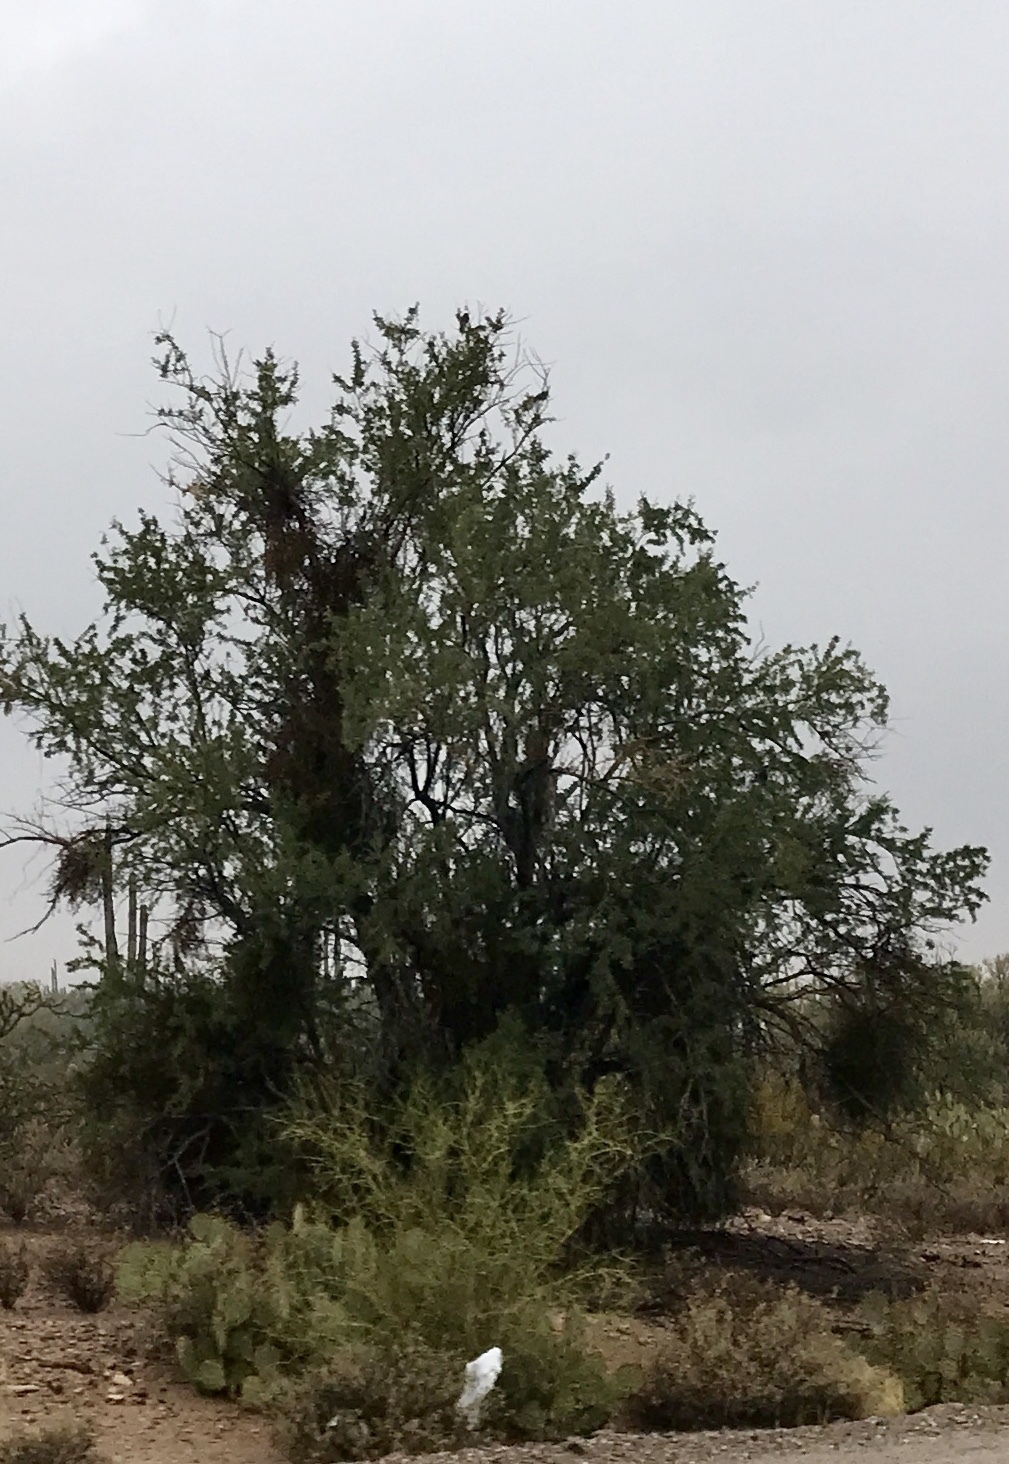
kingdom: Plantae
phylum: Tracheophyta
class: Magnoliopsida
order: Fabales
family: Fabaceae
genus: Olneya
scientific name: Olneya tesota
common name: Desert ironwood
